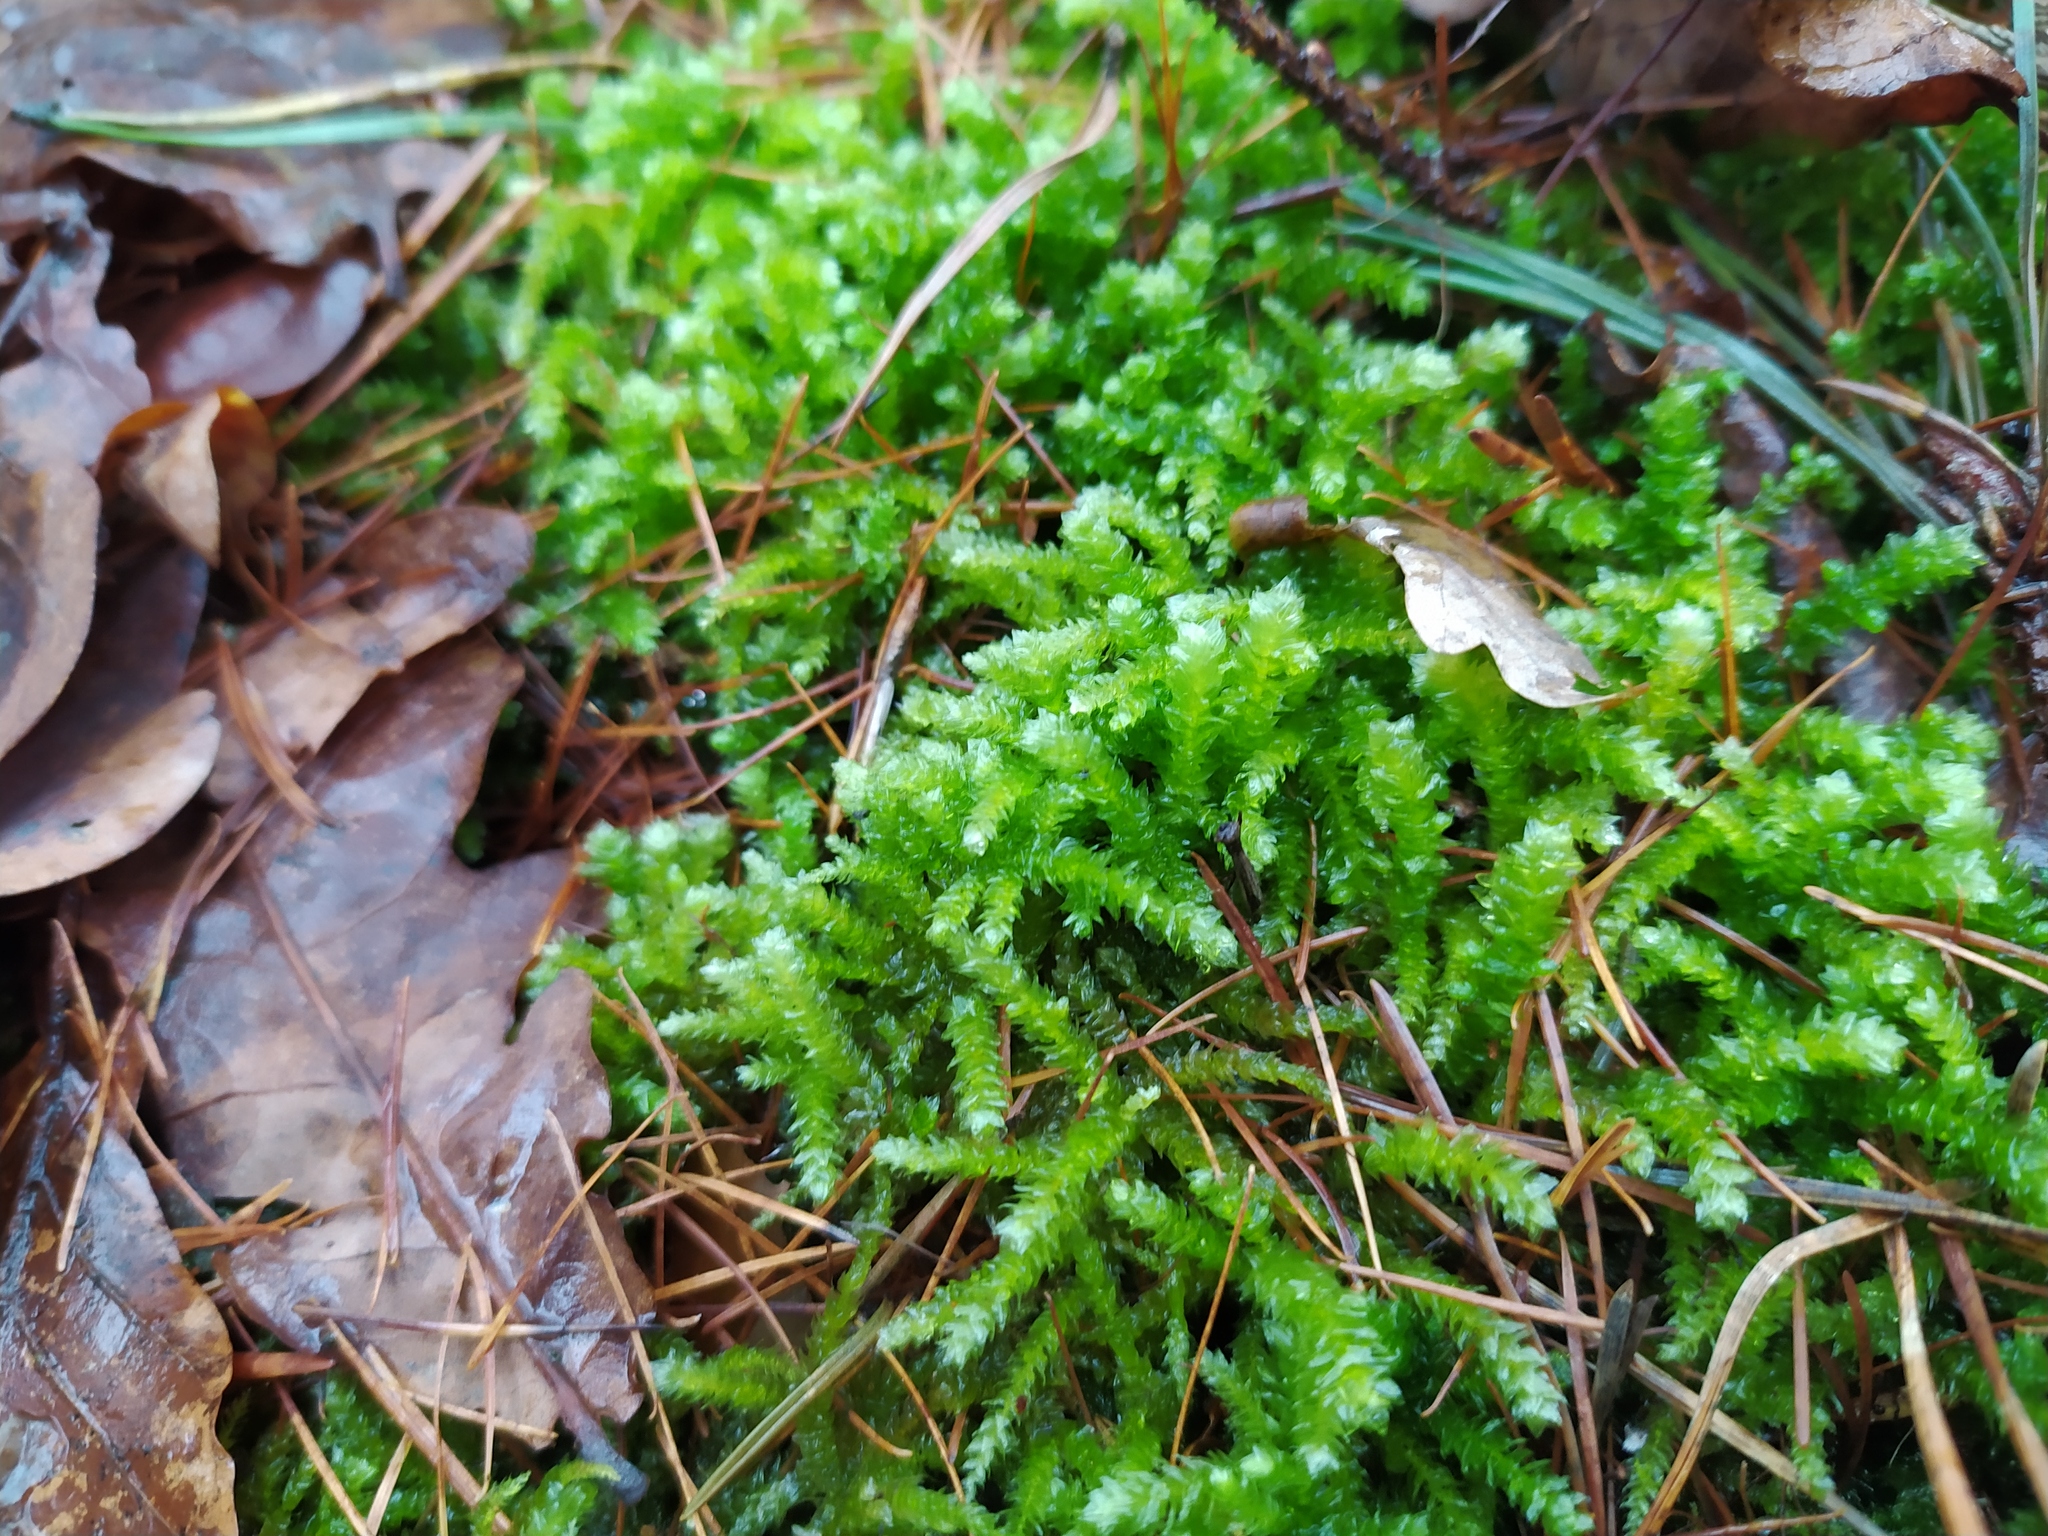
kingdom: Plantae
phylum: Bryophyta
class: Bryopsida
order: Hypnales
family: Brachytheciaceae
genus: Eurhynchium
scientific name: Eurhynchium angustirete
